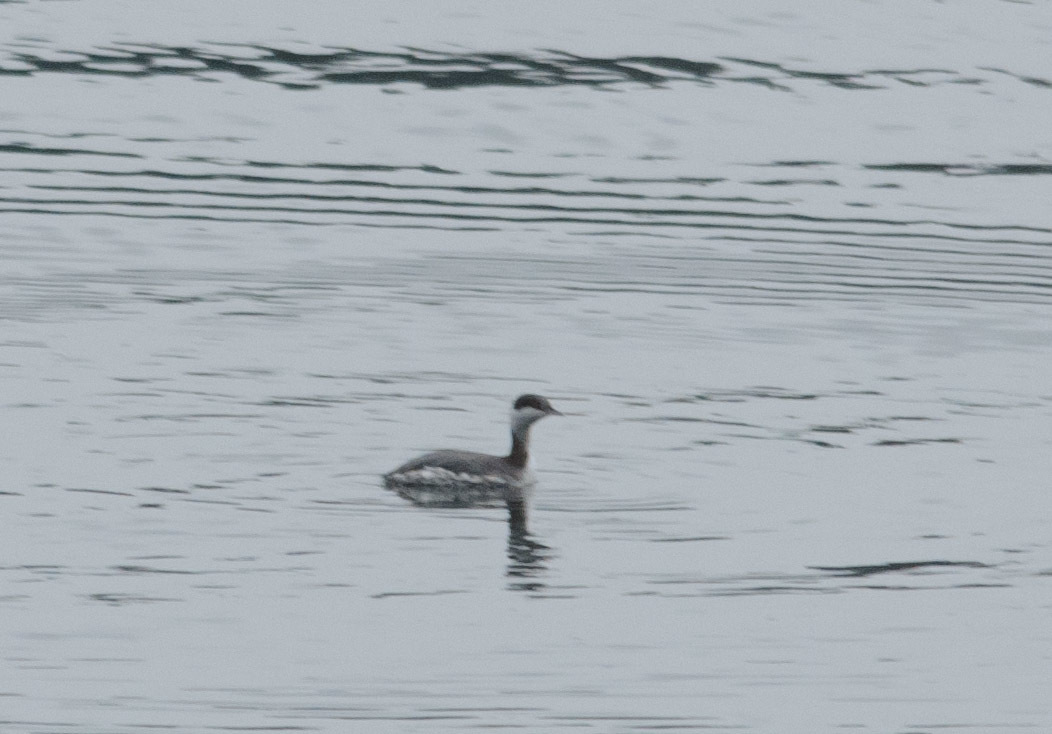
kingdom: Animalia
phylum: Chordata
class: Aves
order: Podicipediformes
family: Podicipedidae
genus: Podiceps
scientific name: Podiceps auritus
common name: Horned grebe
